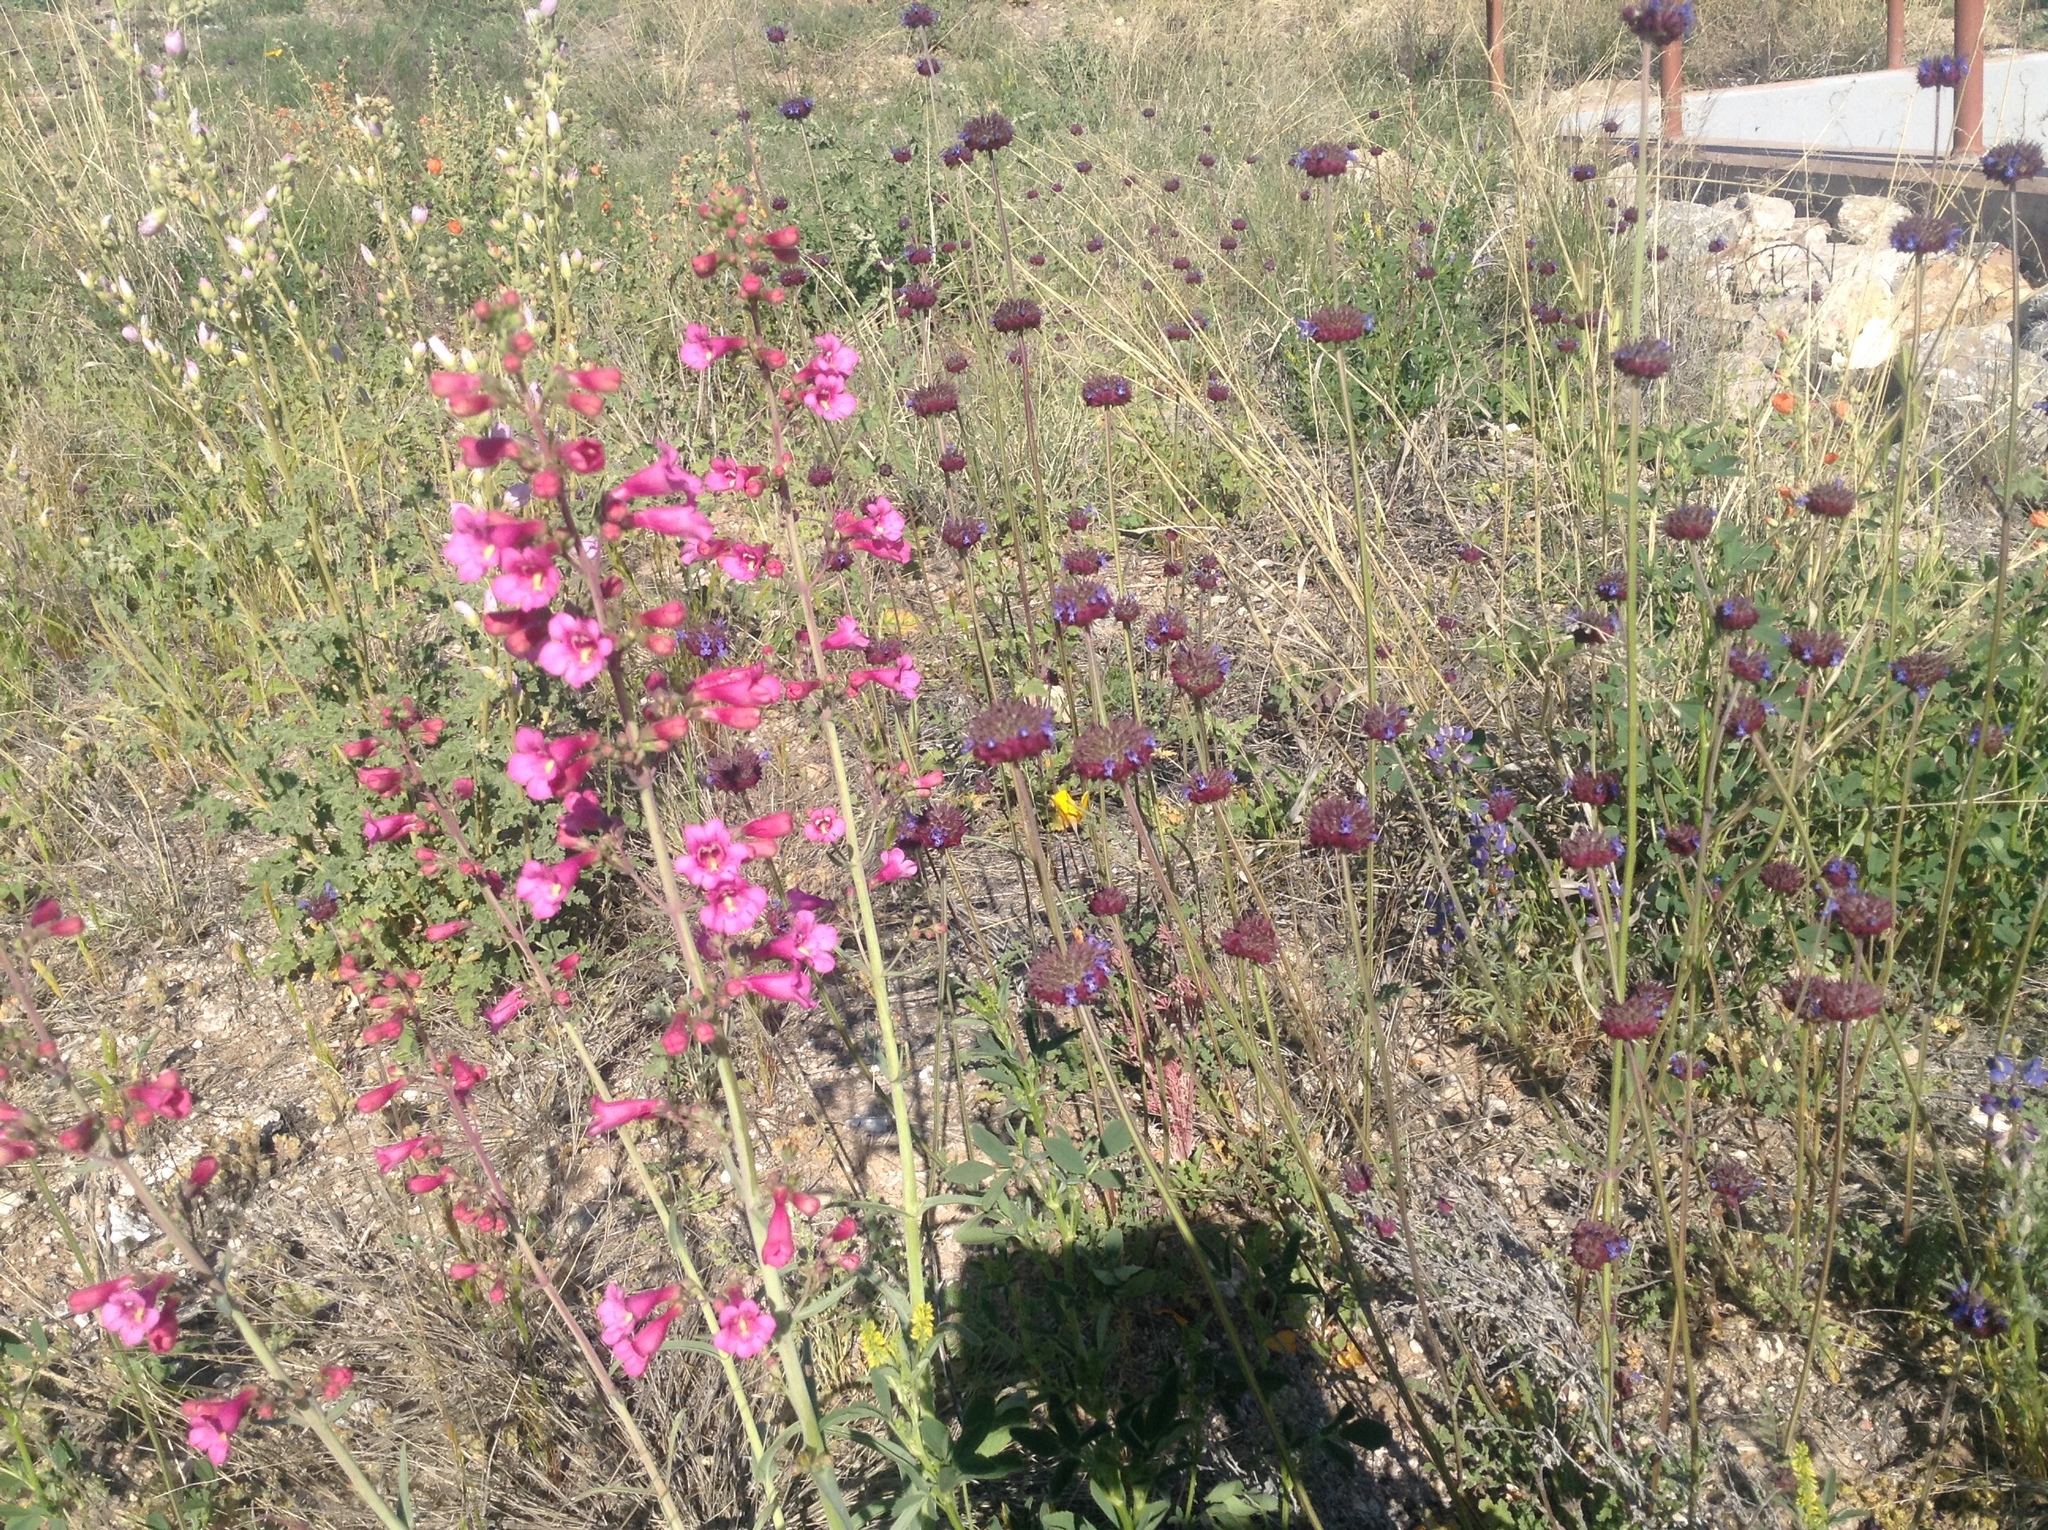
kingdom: Plantae
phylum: Tracheophyta
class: Magnoliopsida
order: Lamiales
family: Lamiaceae
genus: Salvia
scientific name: Salvia columbariae
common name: Chia
